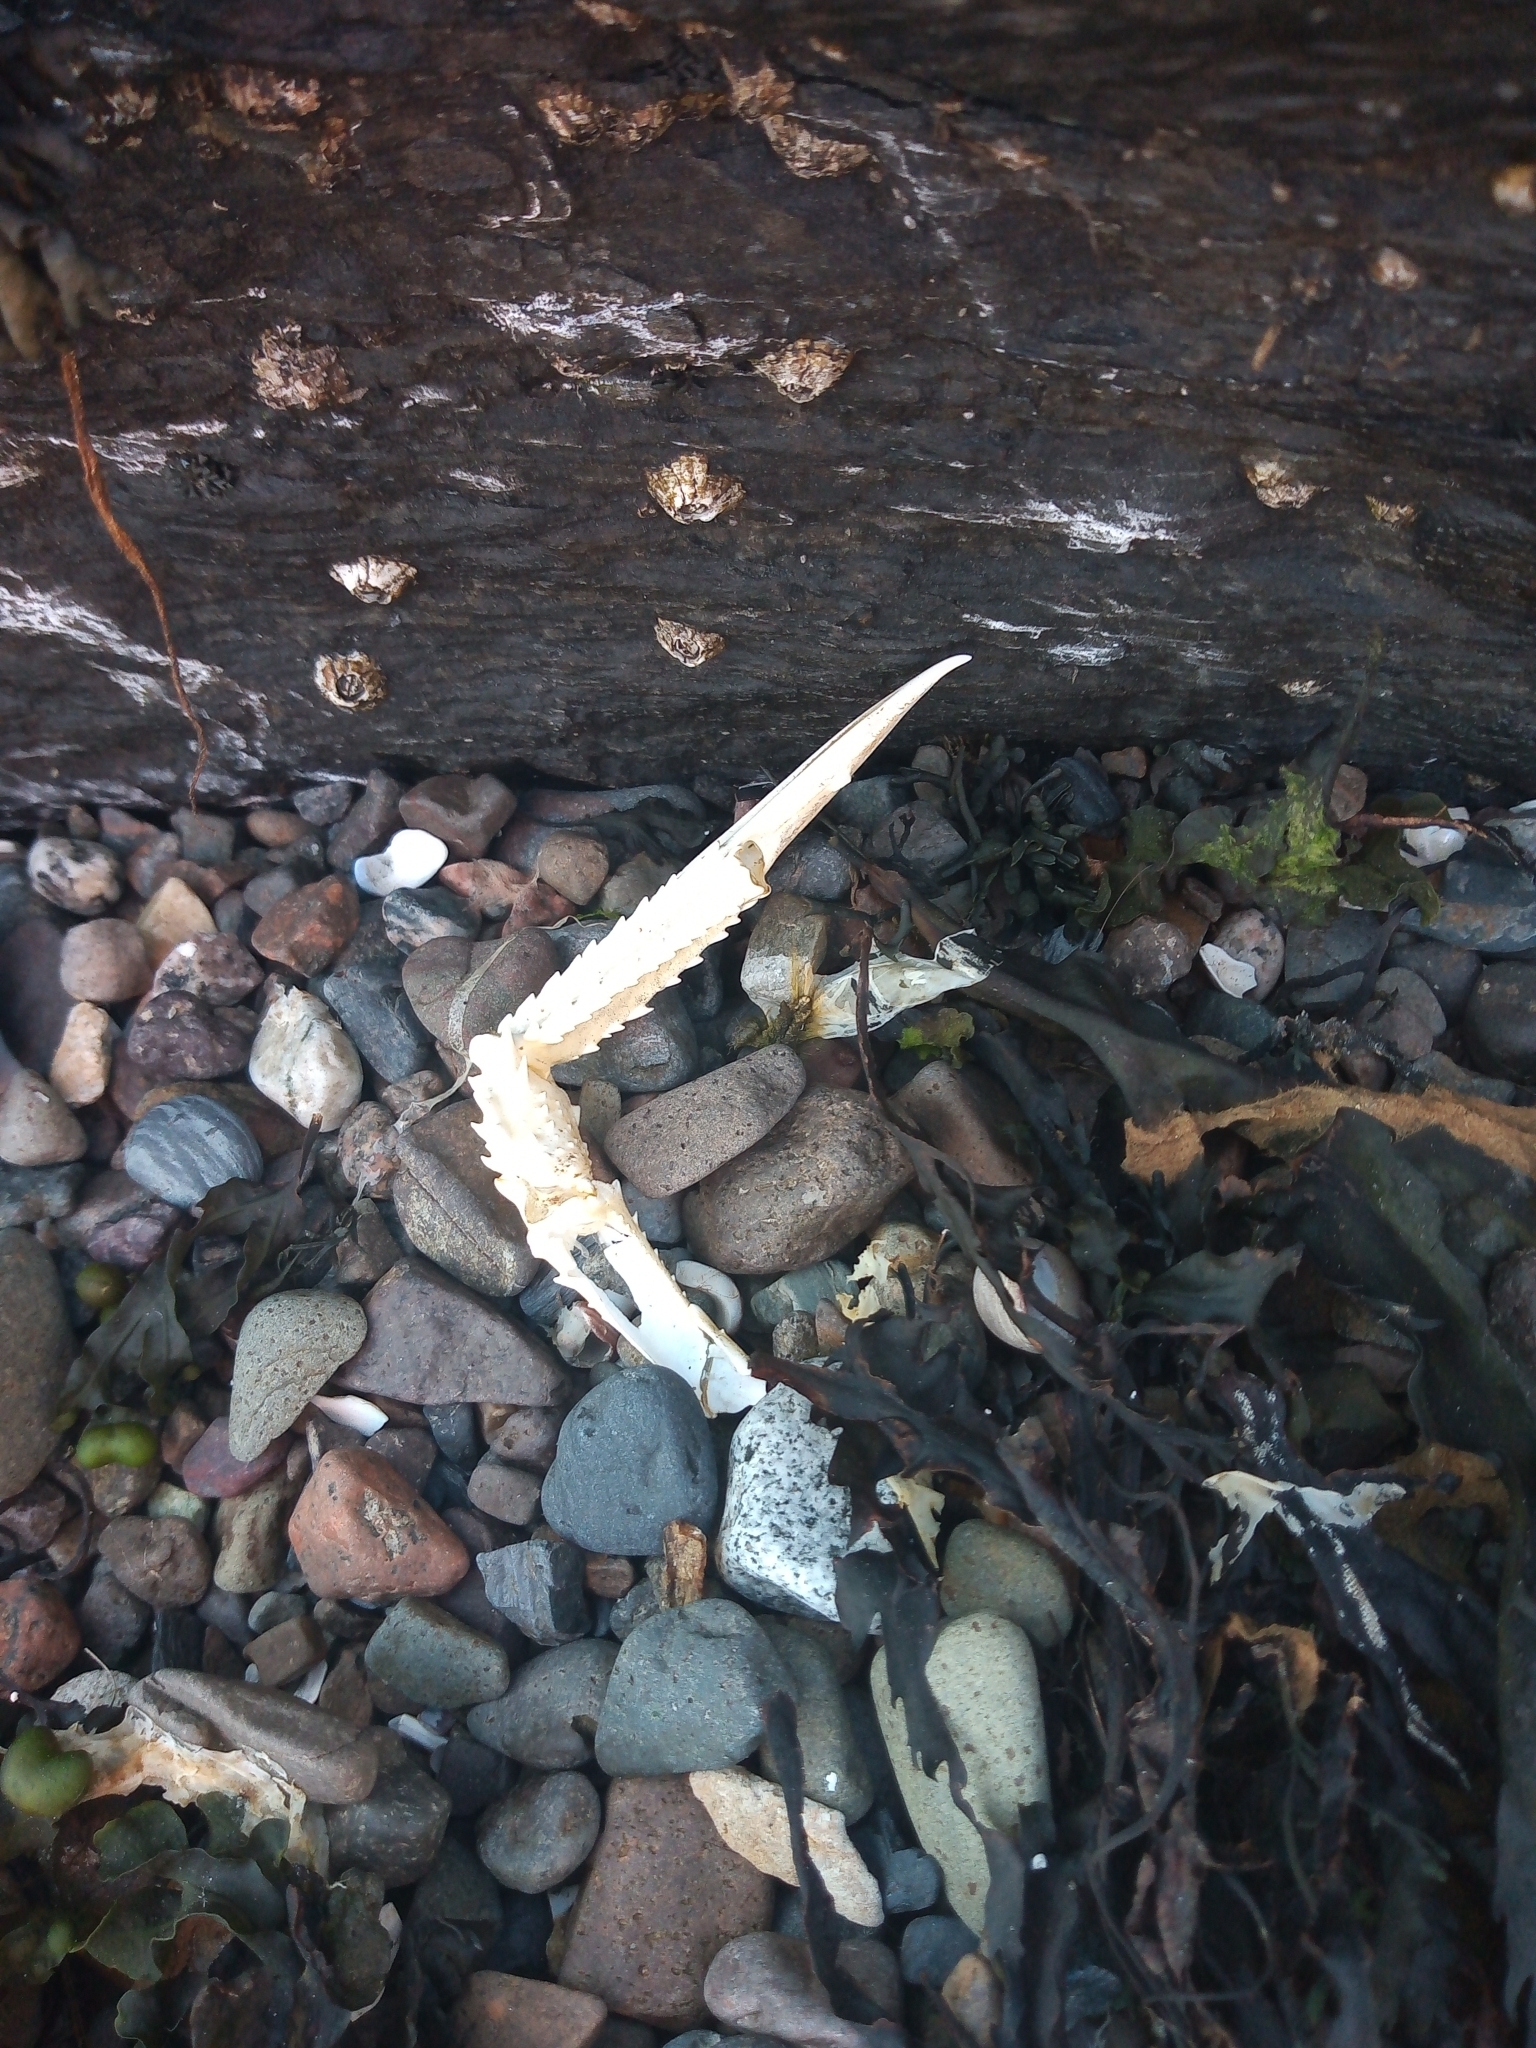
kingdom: Animalia
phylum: Arthropoda
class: Malacostraca
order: Decapoda
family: Nephropidae
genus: Nephrops
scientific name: Nephrops norvegicus
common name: Norway lobster
